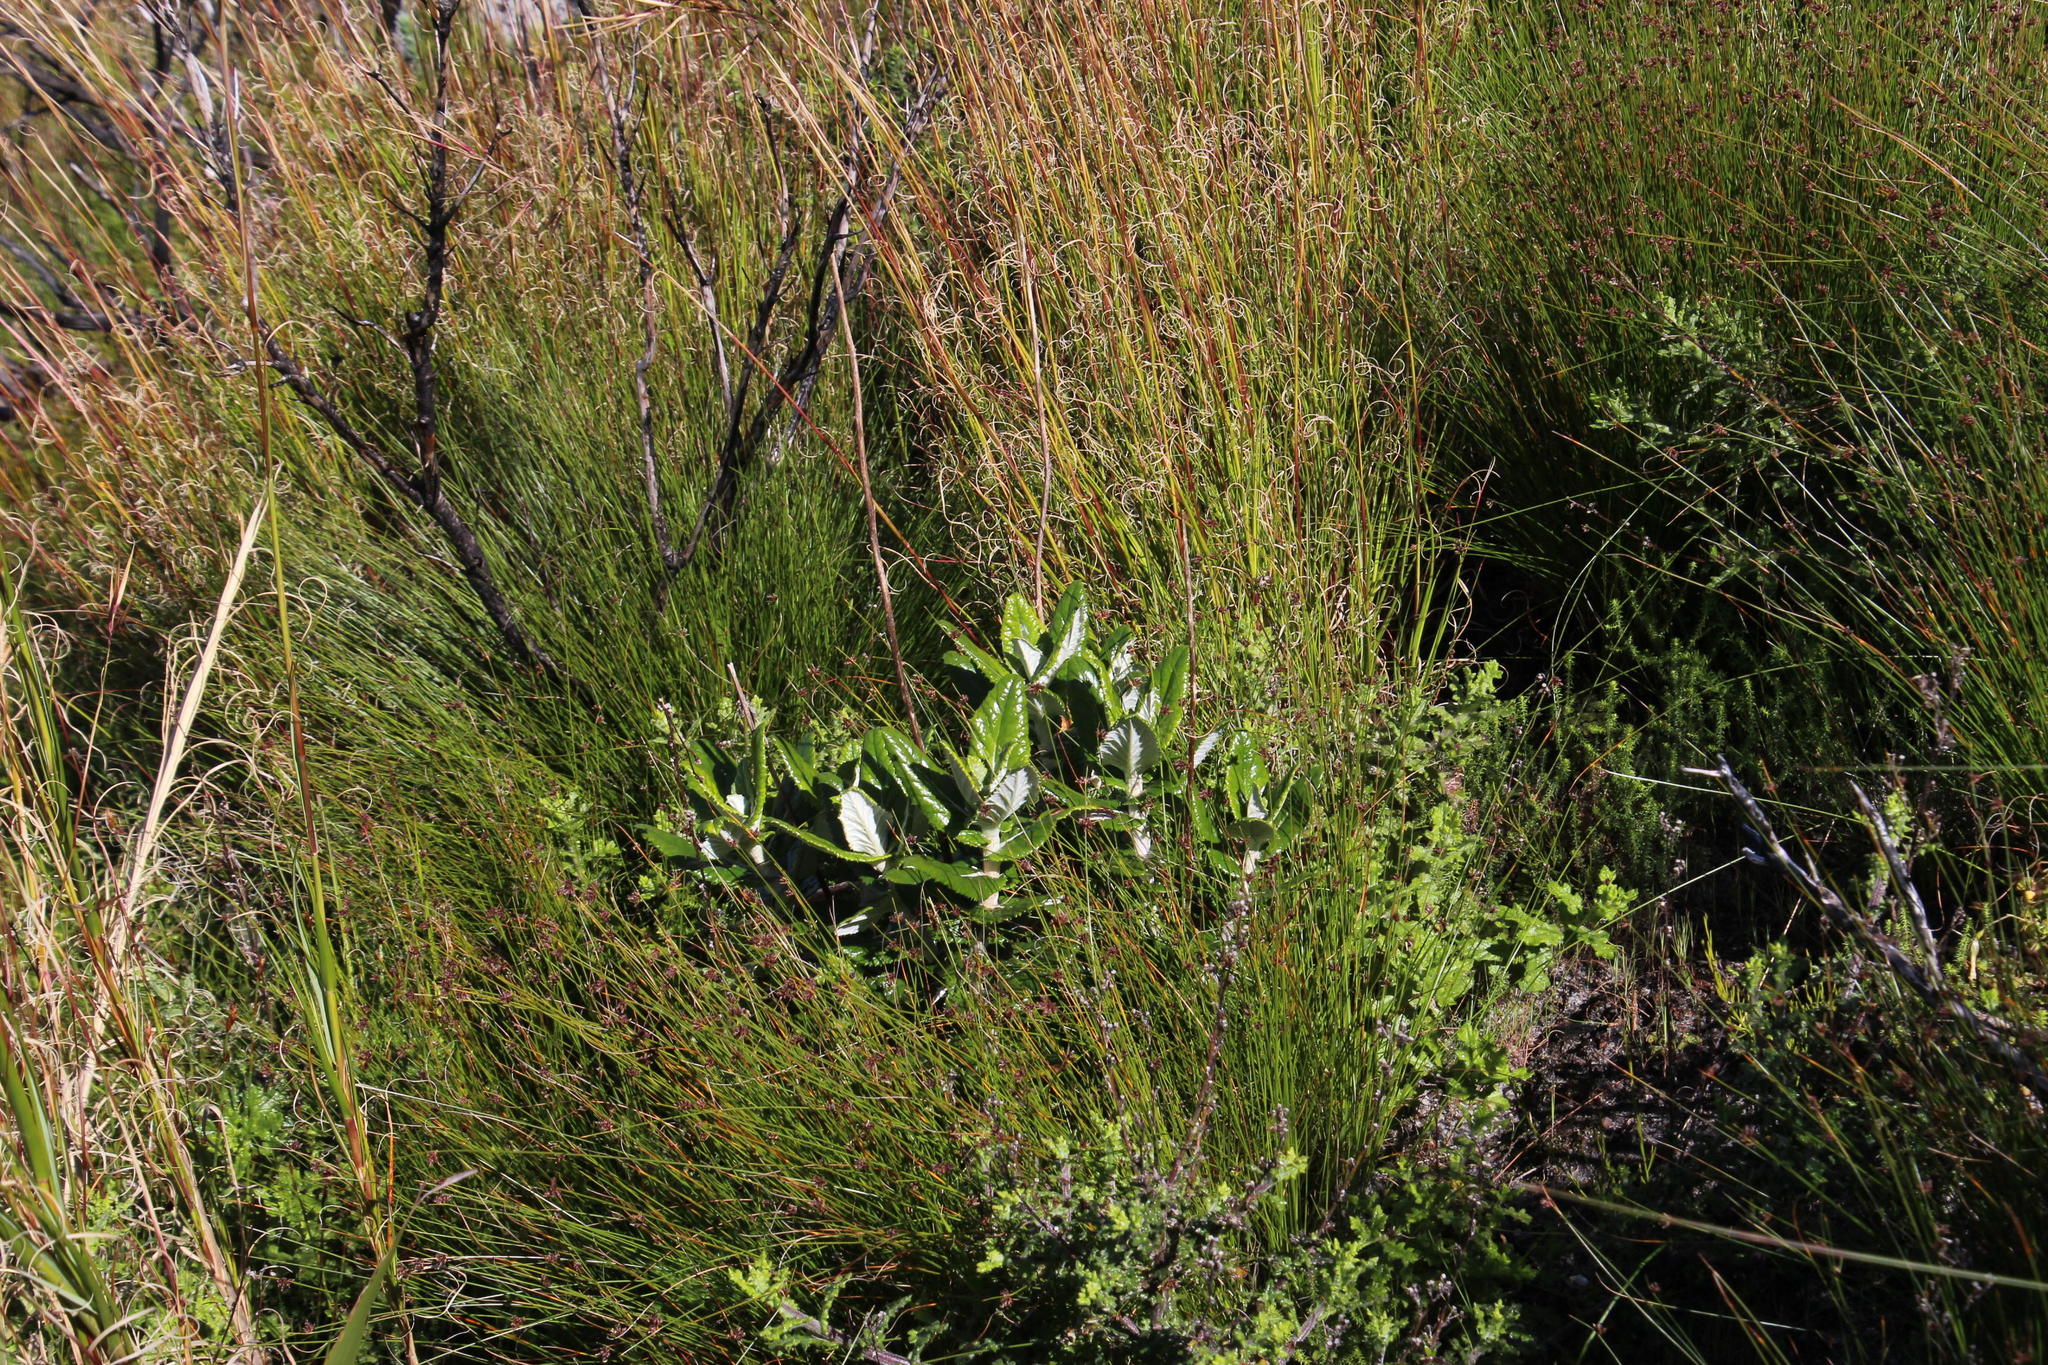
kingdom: Plantae
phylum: Tracheophyta
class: Magnoliopsida
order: Apiales
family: Apiaceae
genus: Hermas
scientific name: Hermas villosa
